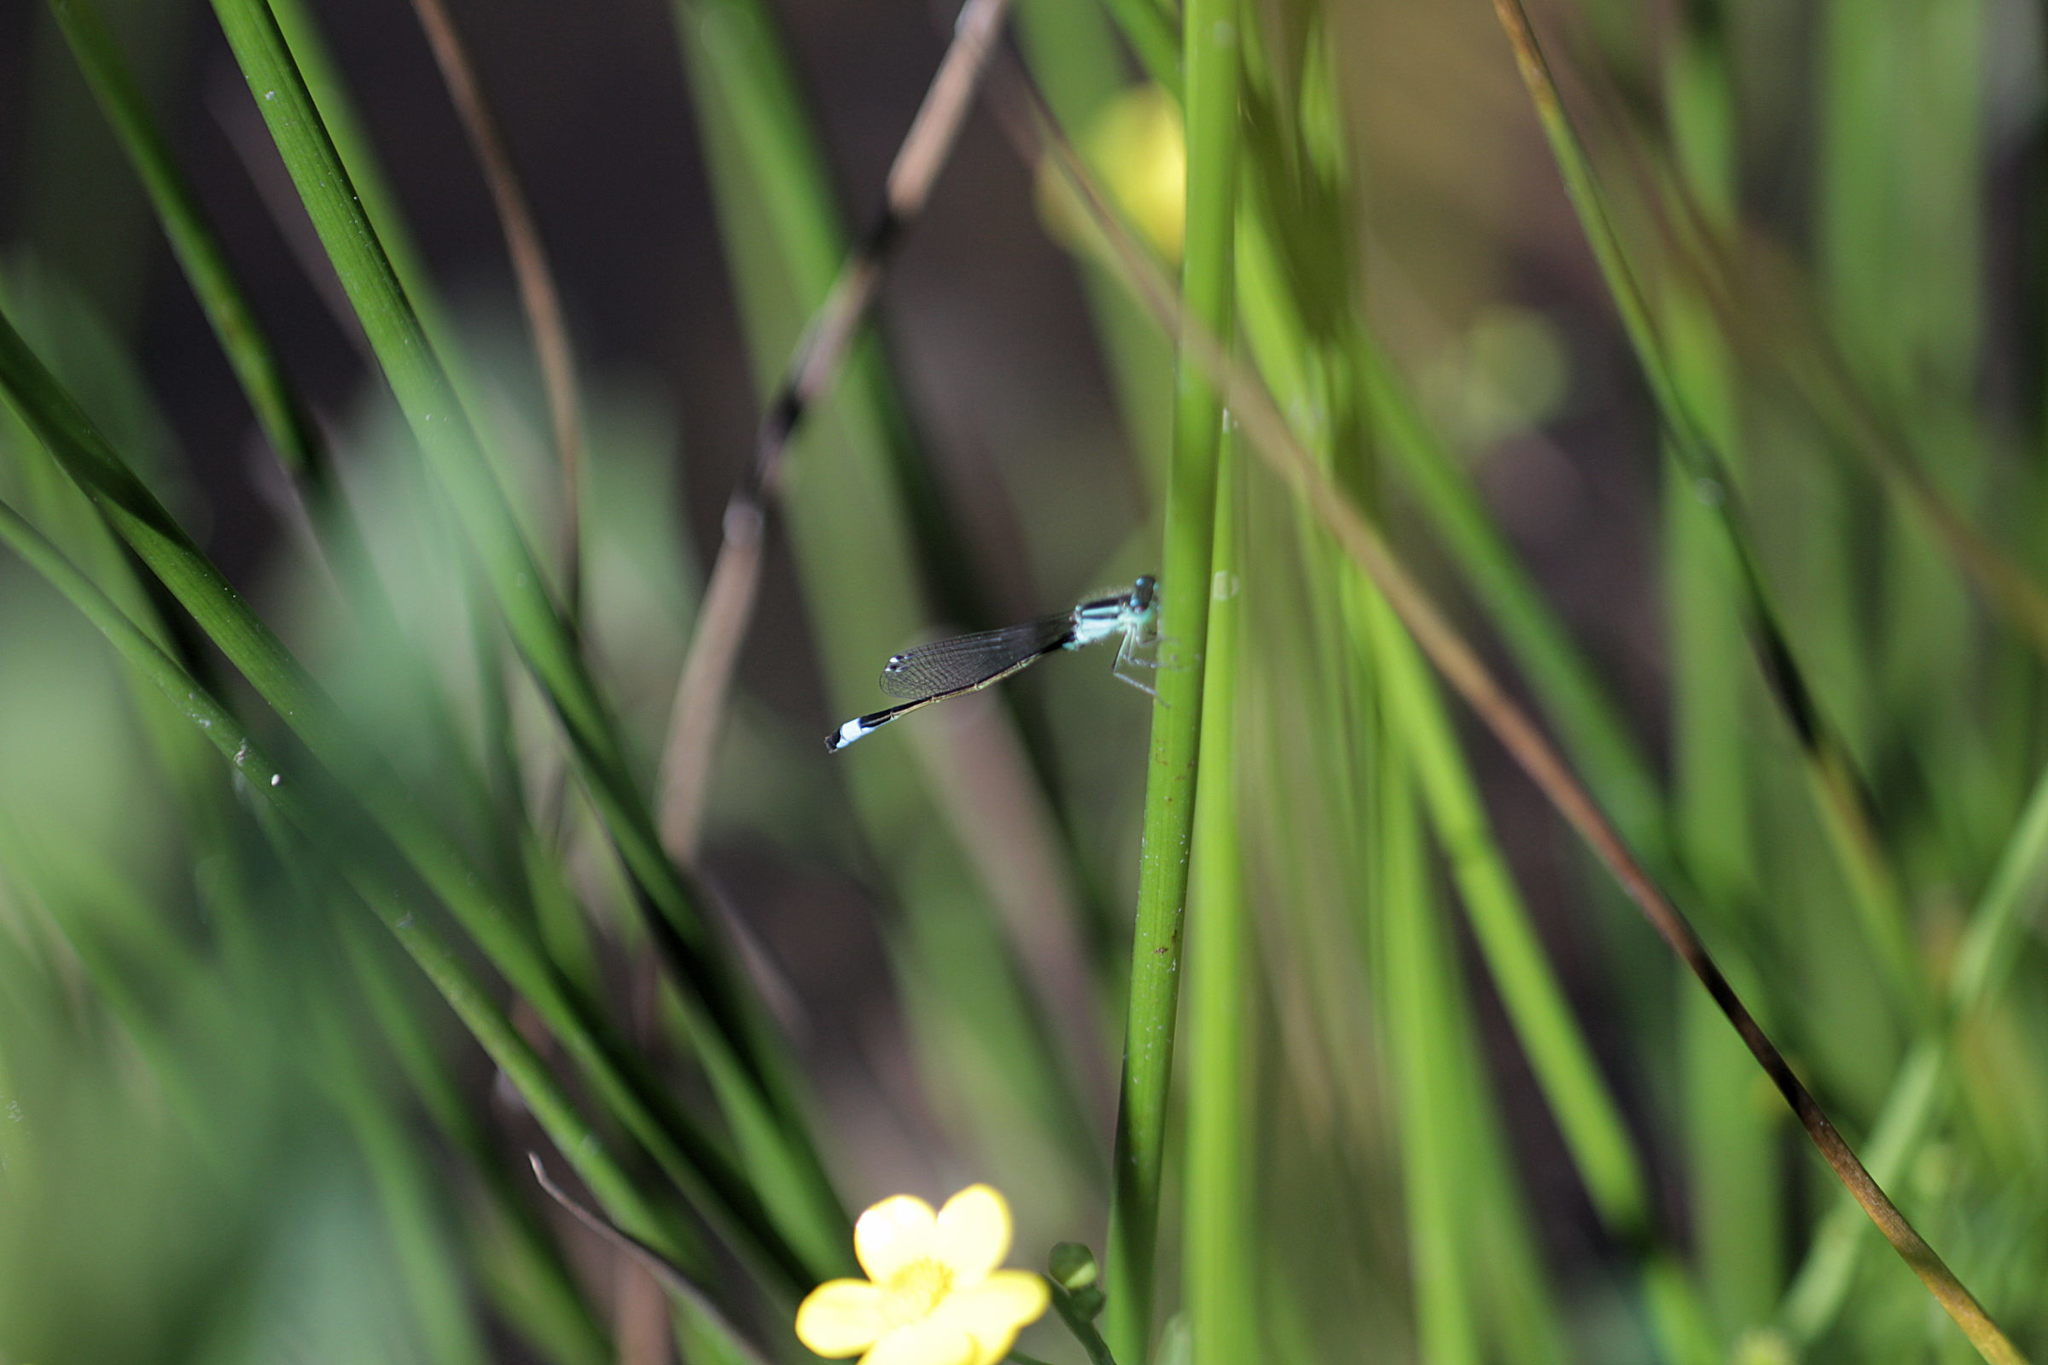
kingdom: Animalia
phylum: Arthropoda
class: Insecta
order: Odonata
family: Coenagrionidae
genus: Ischnura
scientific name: Ischnura elegans
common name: Blue-tailed damselfly
